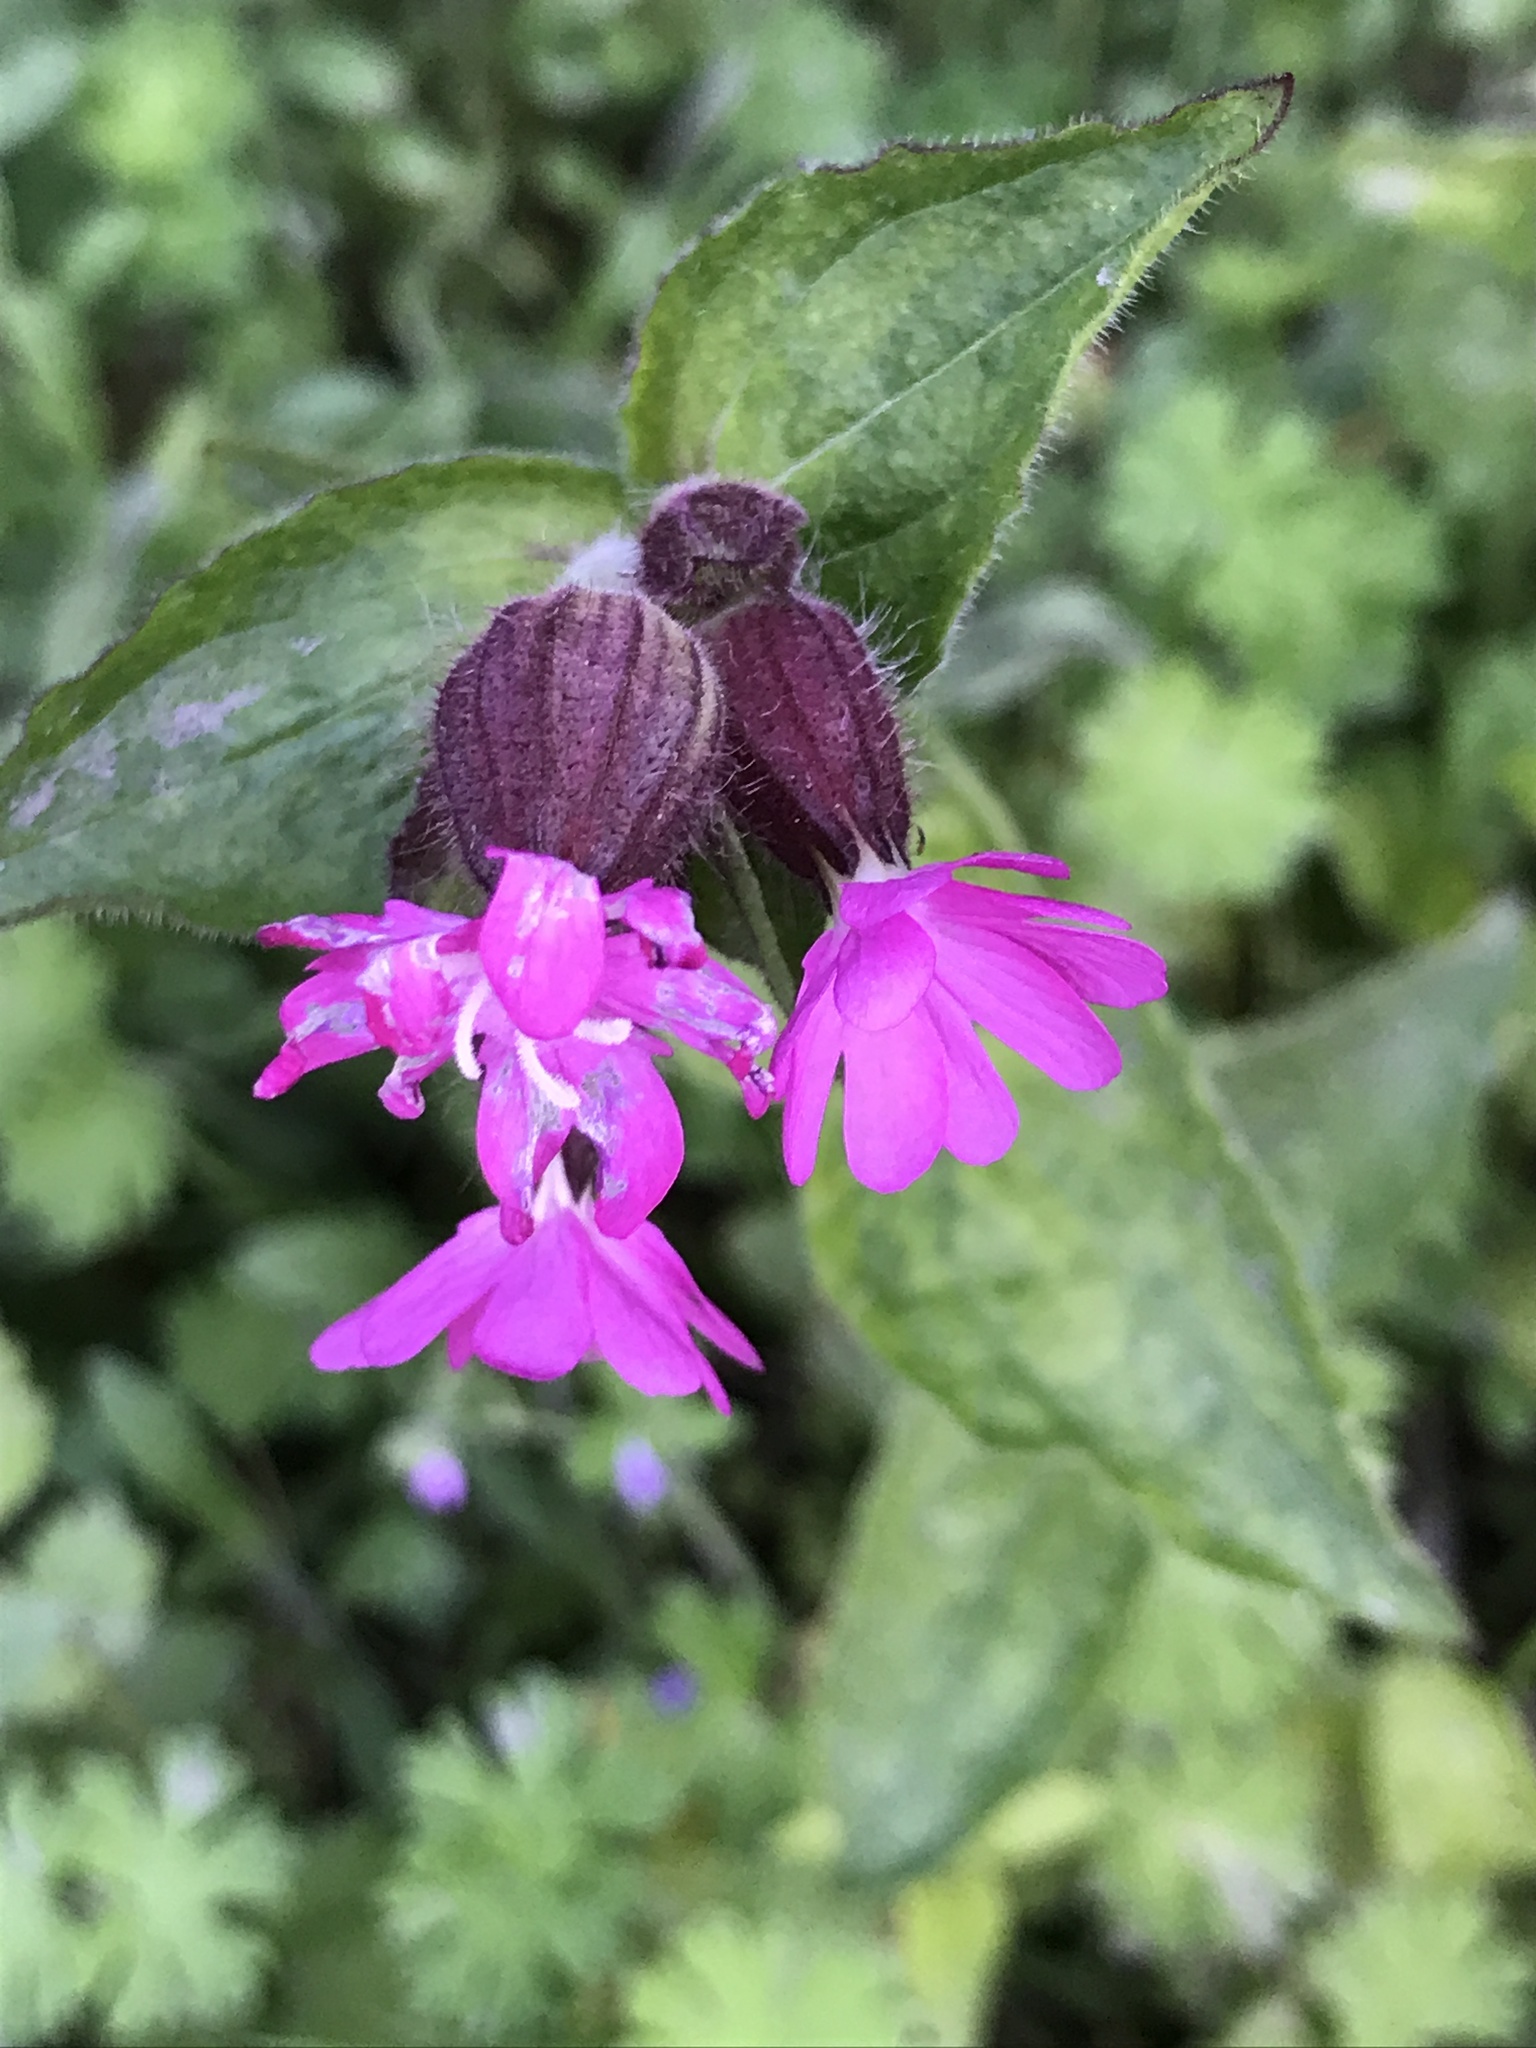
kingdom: Plantae
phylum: Tracheophyta
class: Magnoliopsida
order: Caryophyllales
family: Caryophyllaceae
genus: Silene
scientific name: Silene dioica
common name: Red campion
